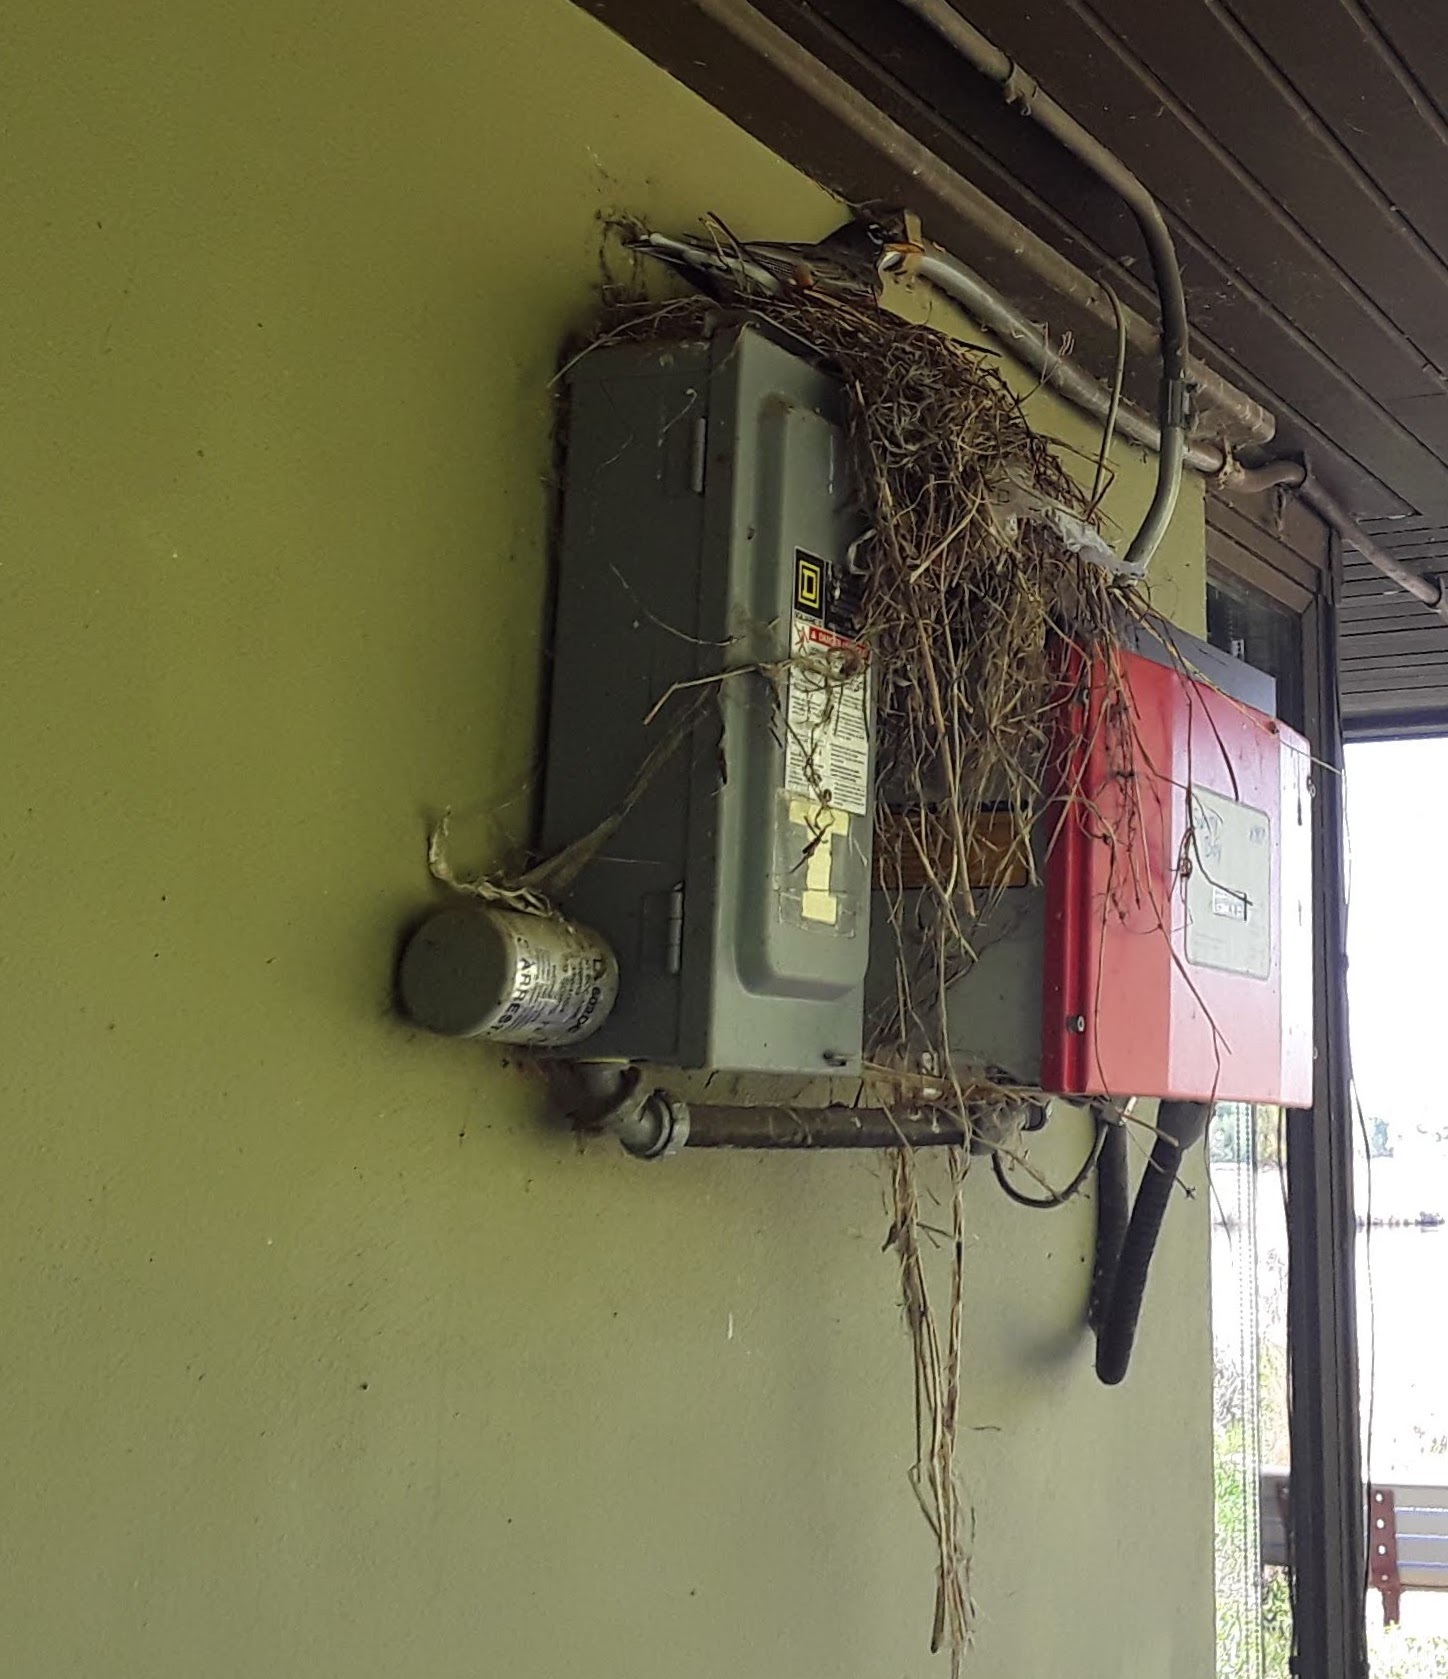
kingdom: Animalia
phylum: Chordata
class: Aves
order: Passeriformes
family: Turdidae
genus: Turdus
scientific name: Turdus migratorius
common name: American robin
